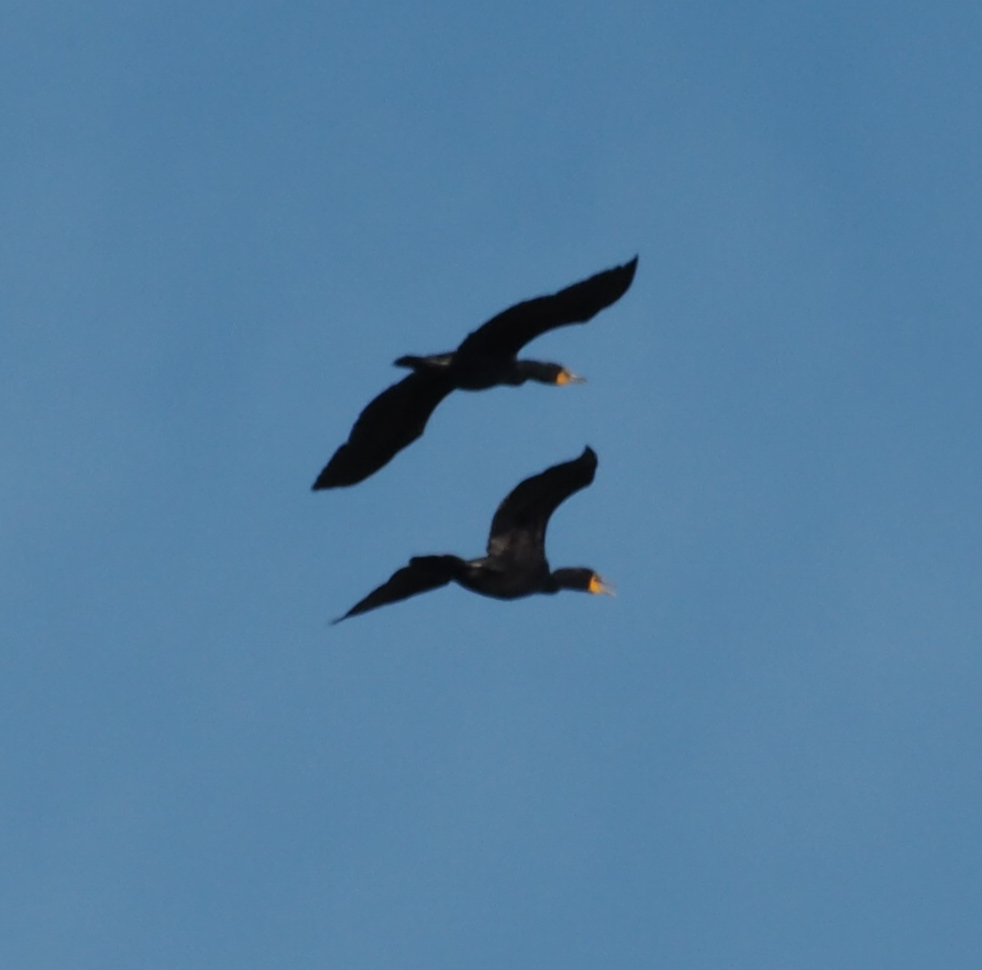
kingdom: Animalia
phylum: Chordata
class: Aves
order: Suliformes
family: Phalacrocoracidae
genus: Phalacrocorax
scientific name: Phalacrocorax auritus
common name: Double-crested cormorant
